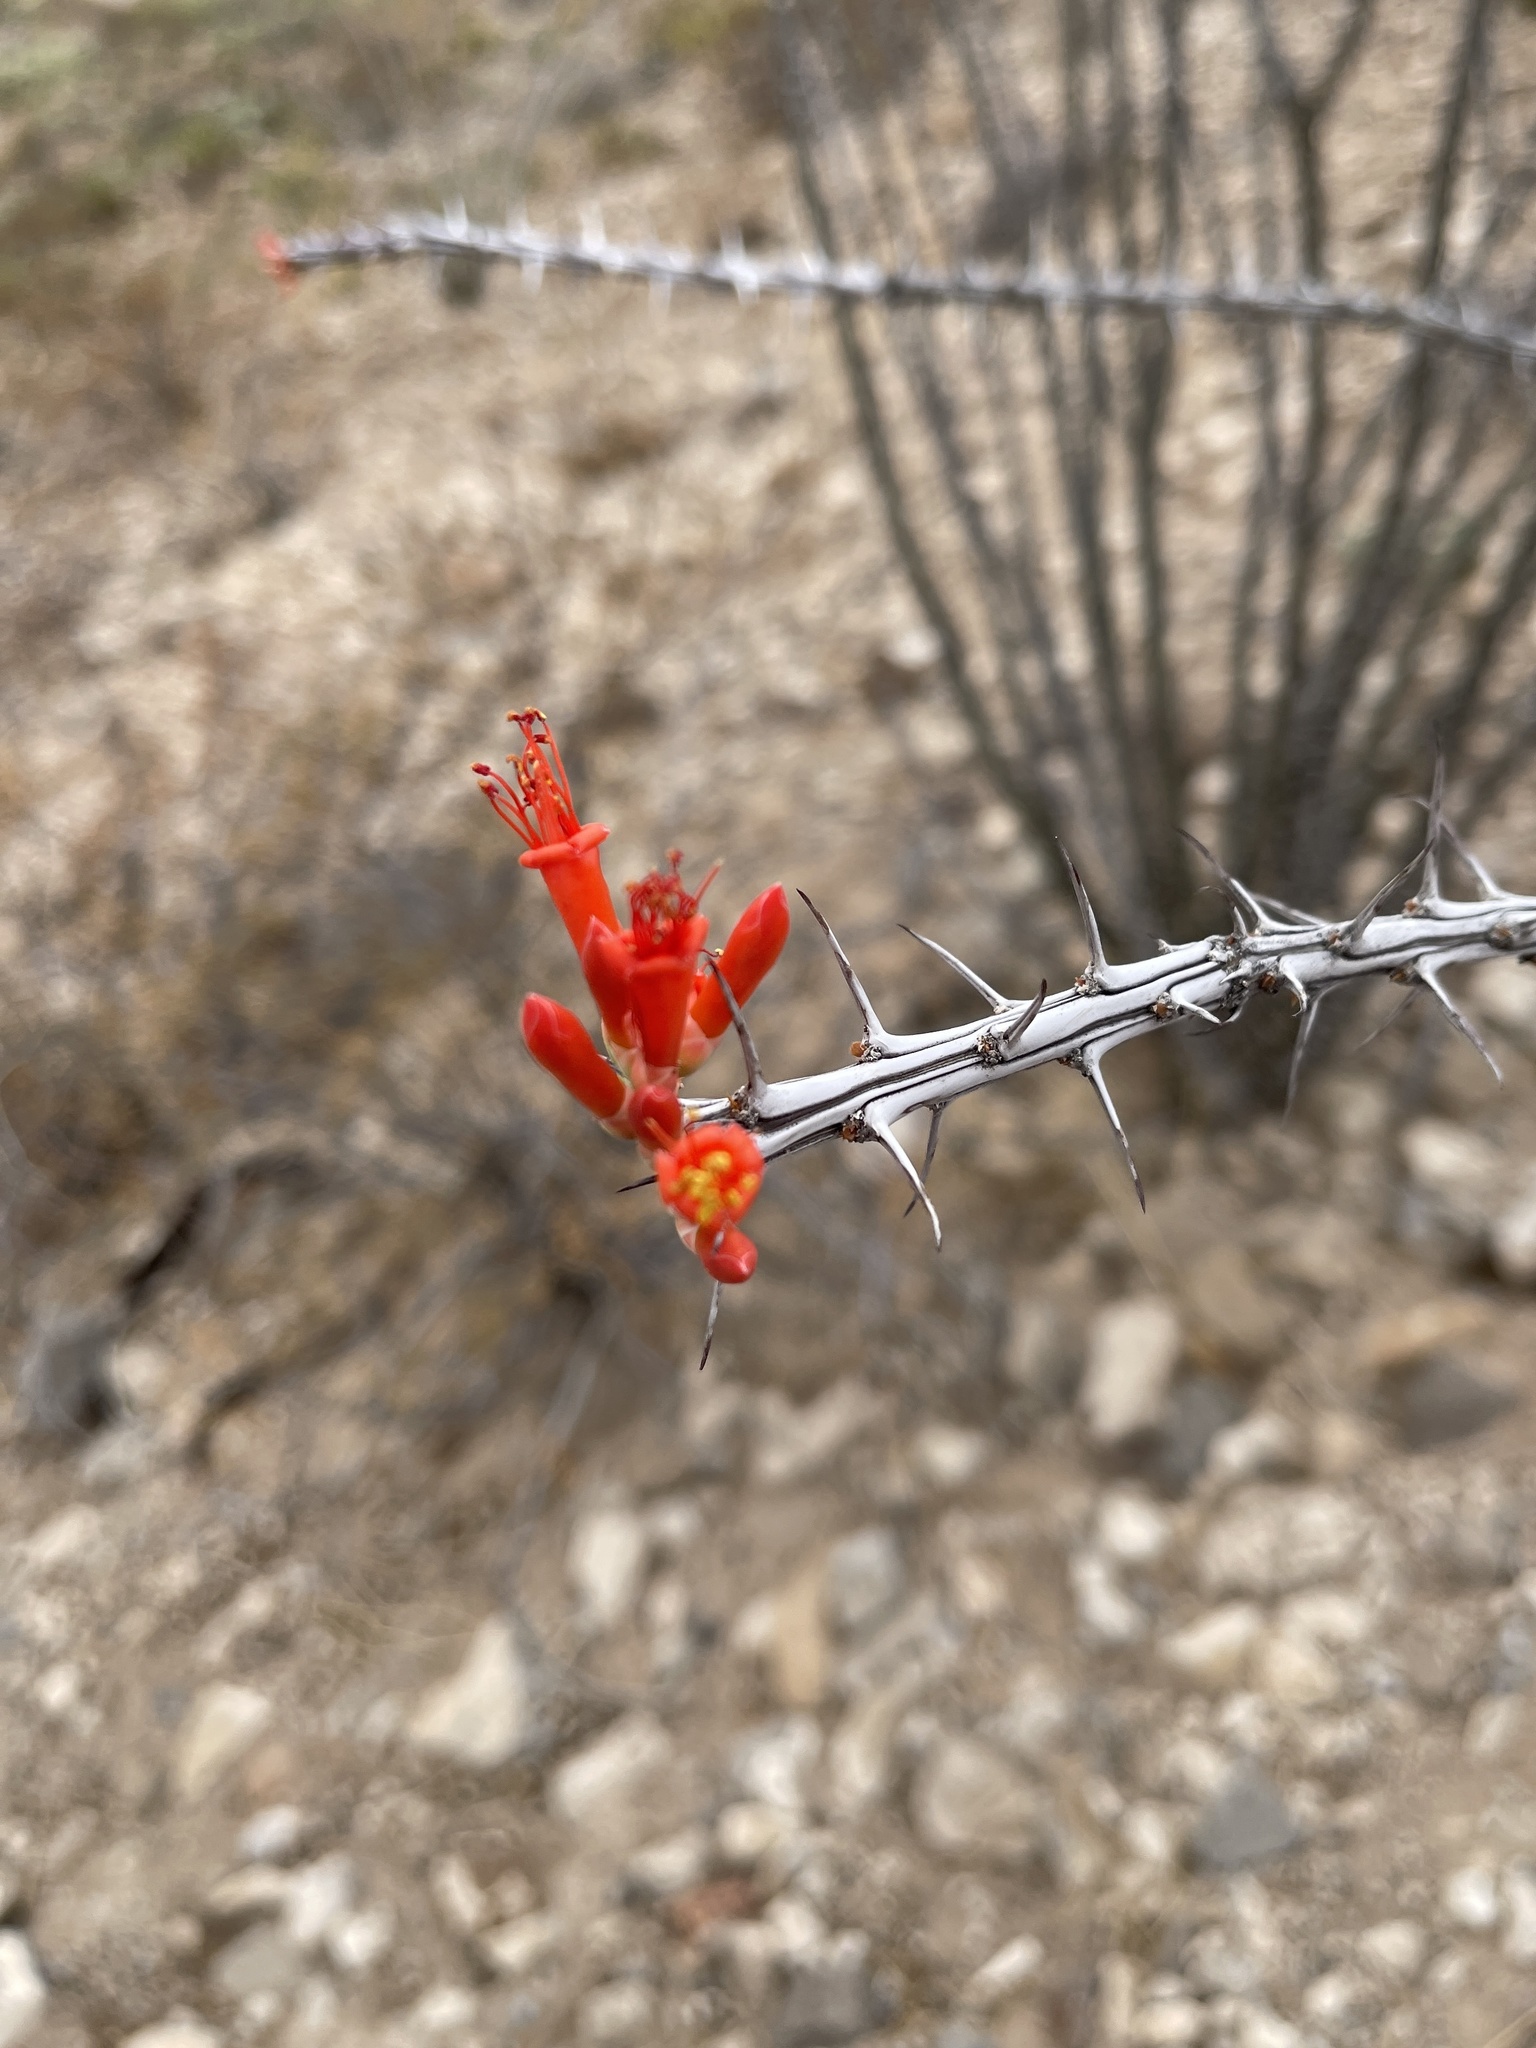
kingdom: Plantae
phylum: Tracheophyta
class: Magnoliopsida
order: Ericales
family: Fouquieriaceae
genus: Fouquieria
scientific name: Fouquieria splendens
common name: Vine-cactus
